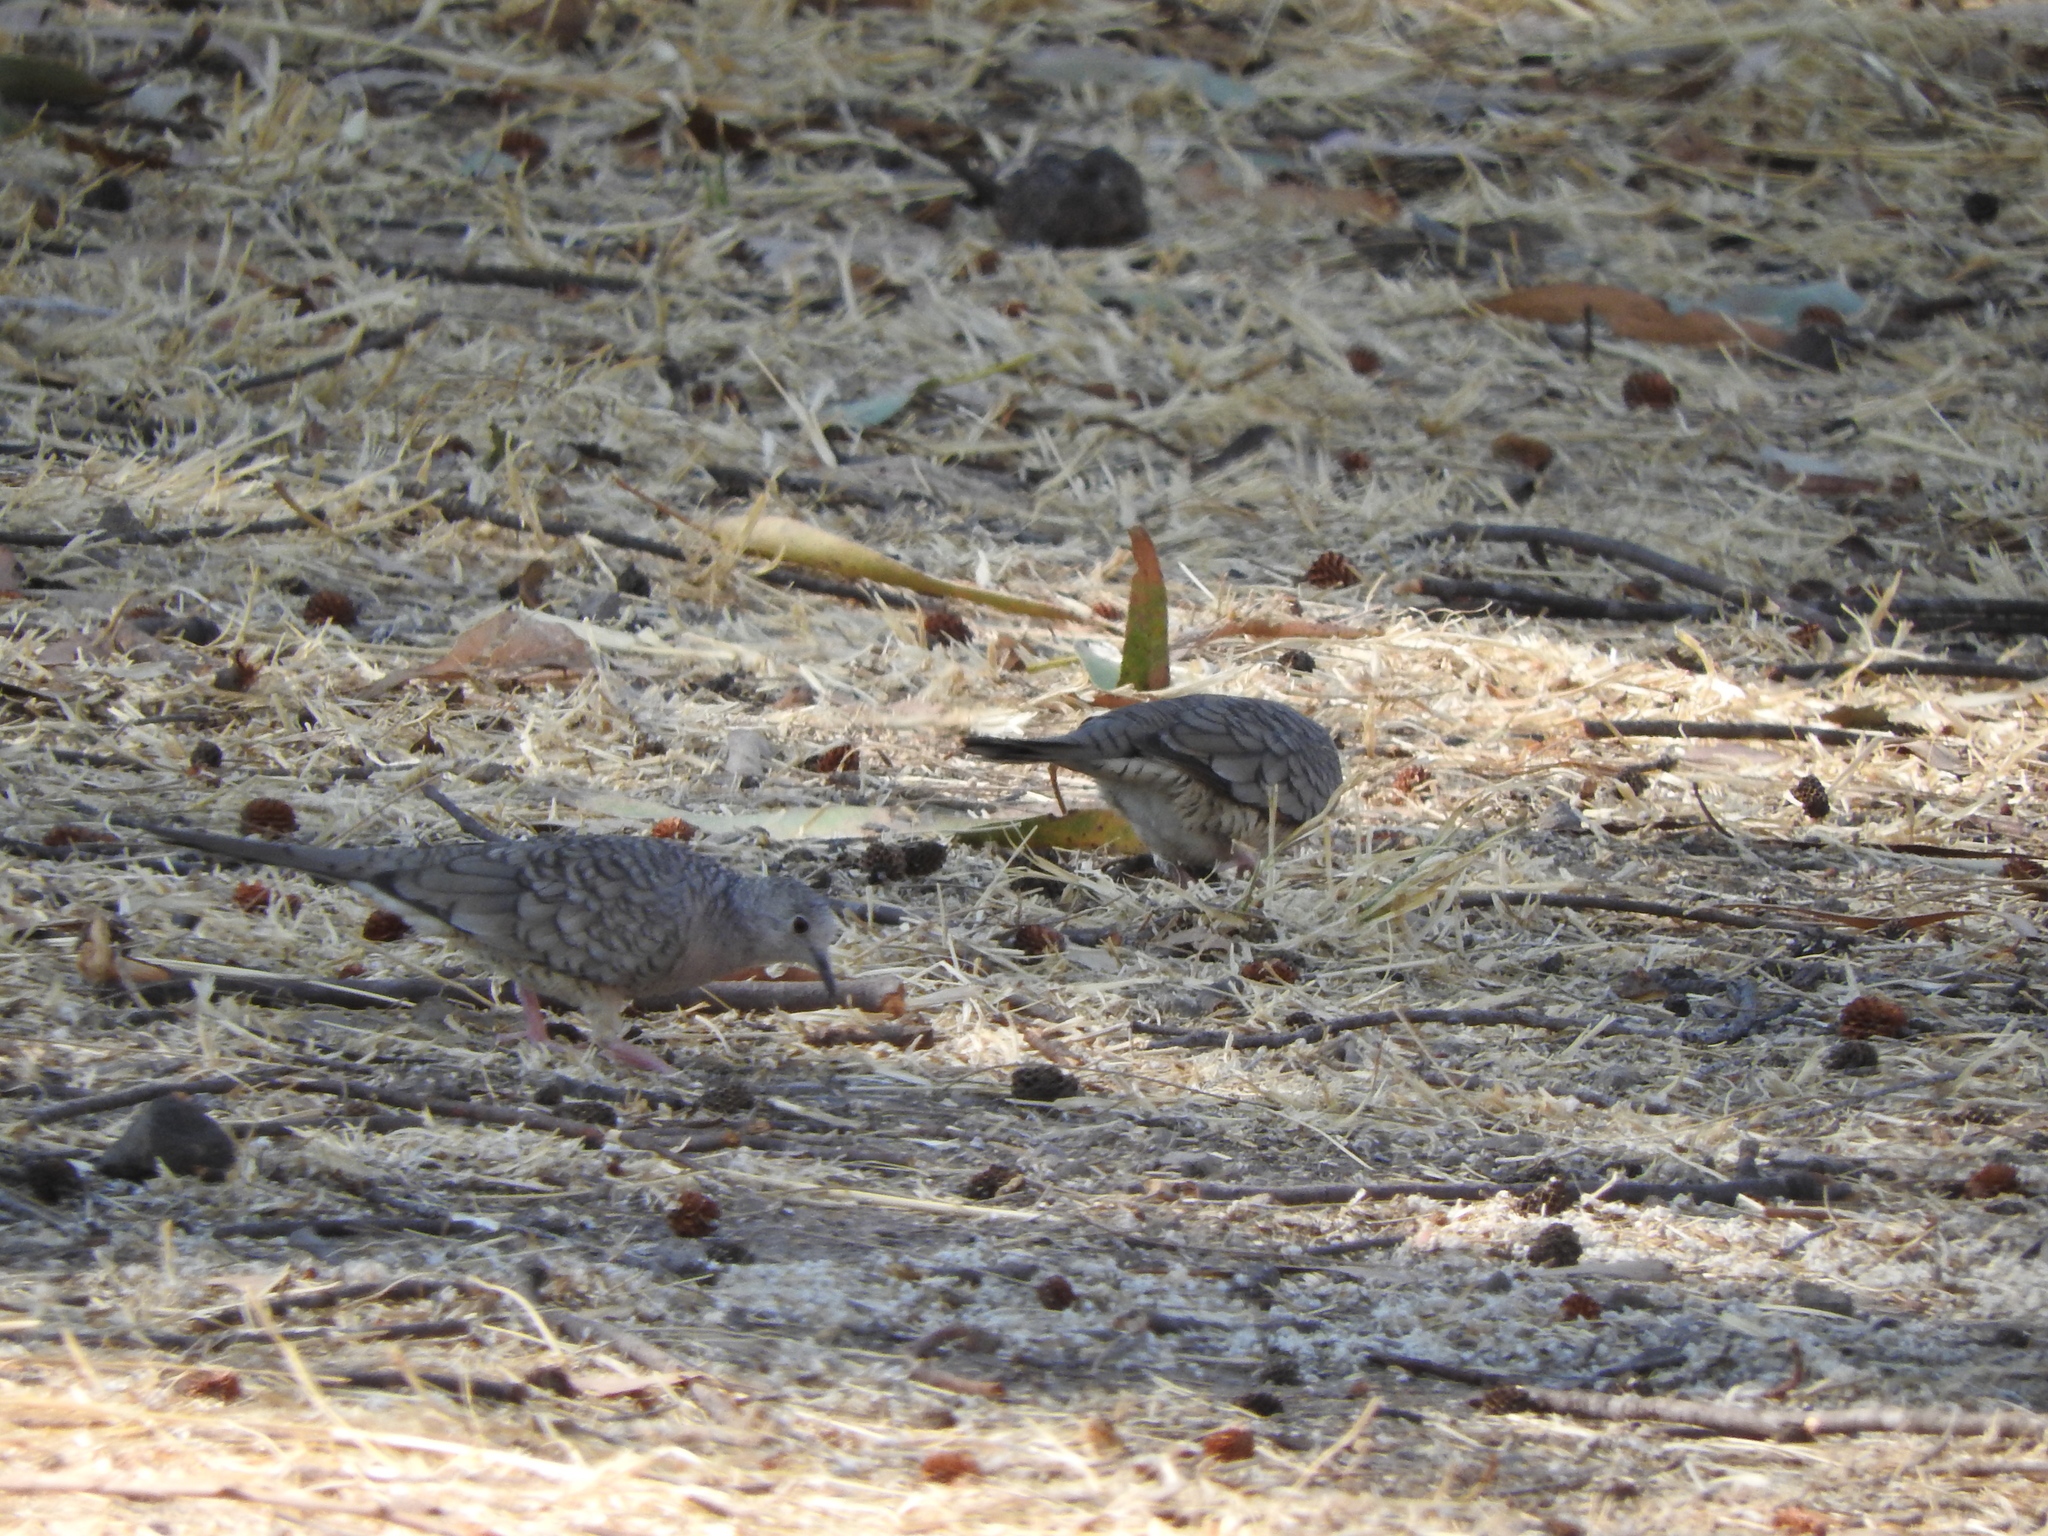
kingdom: Animalia
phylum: Chordata
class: Aves
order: Columbiformes
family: Columbidae
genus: Columbina
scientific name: Columbina inca
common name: Inca dove
